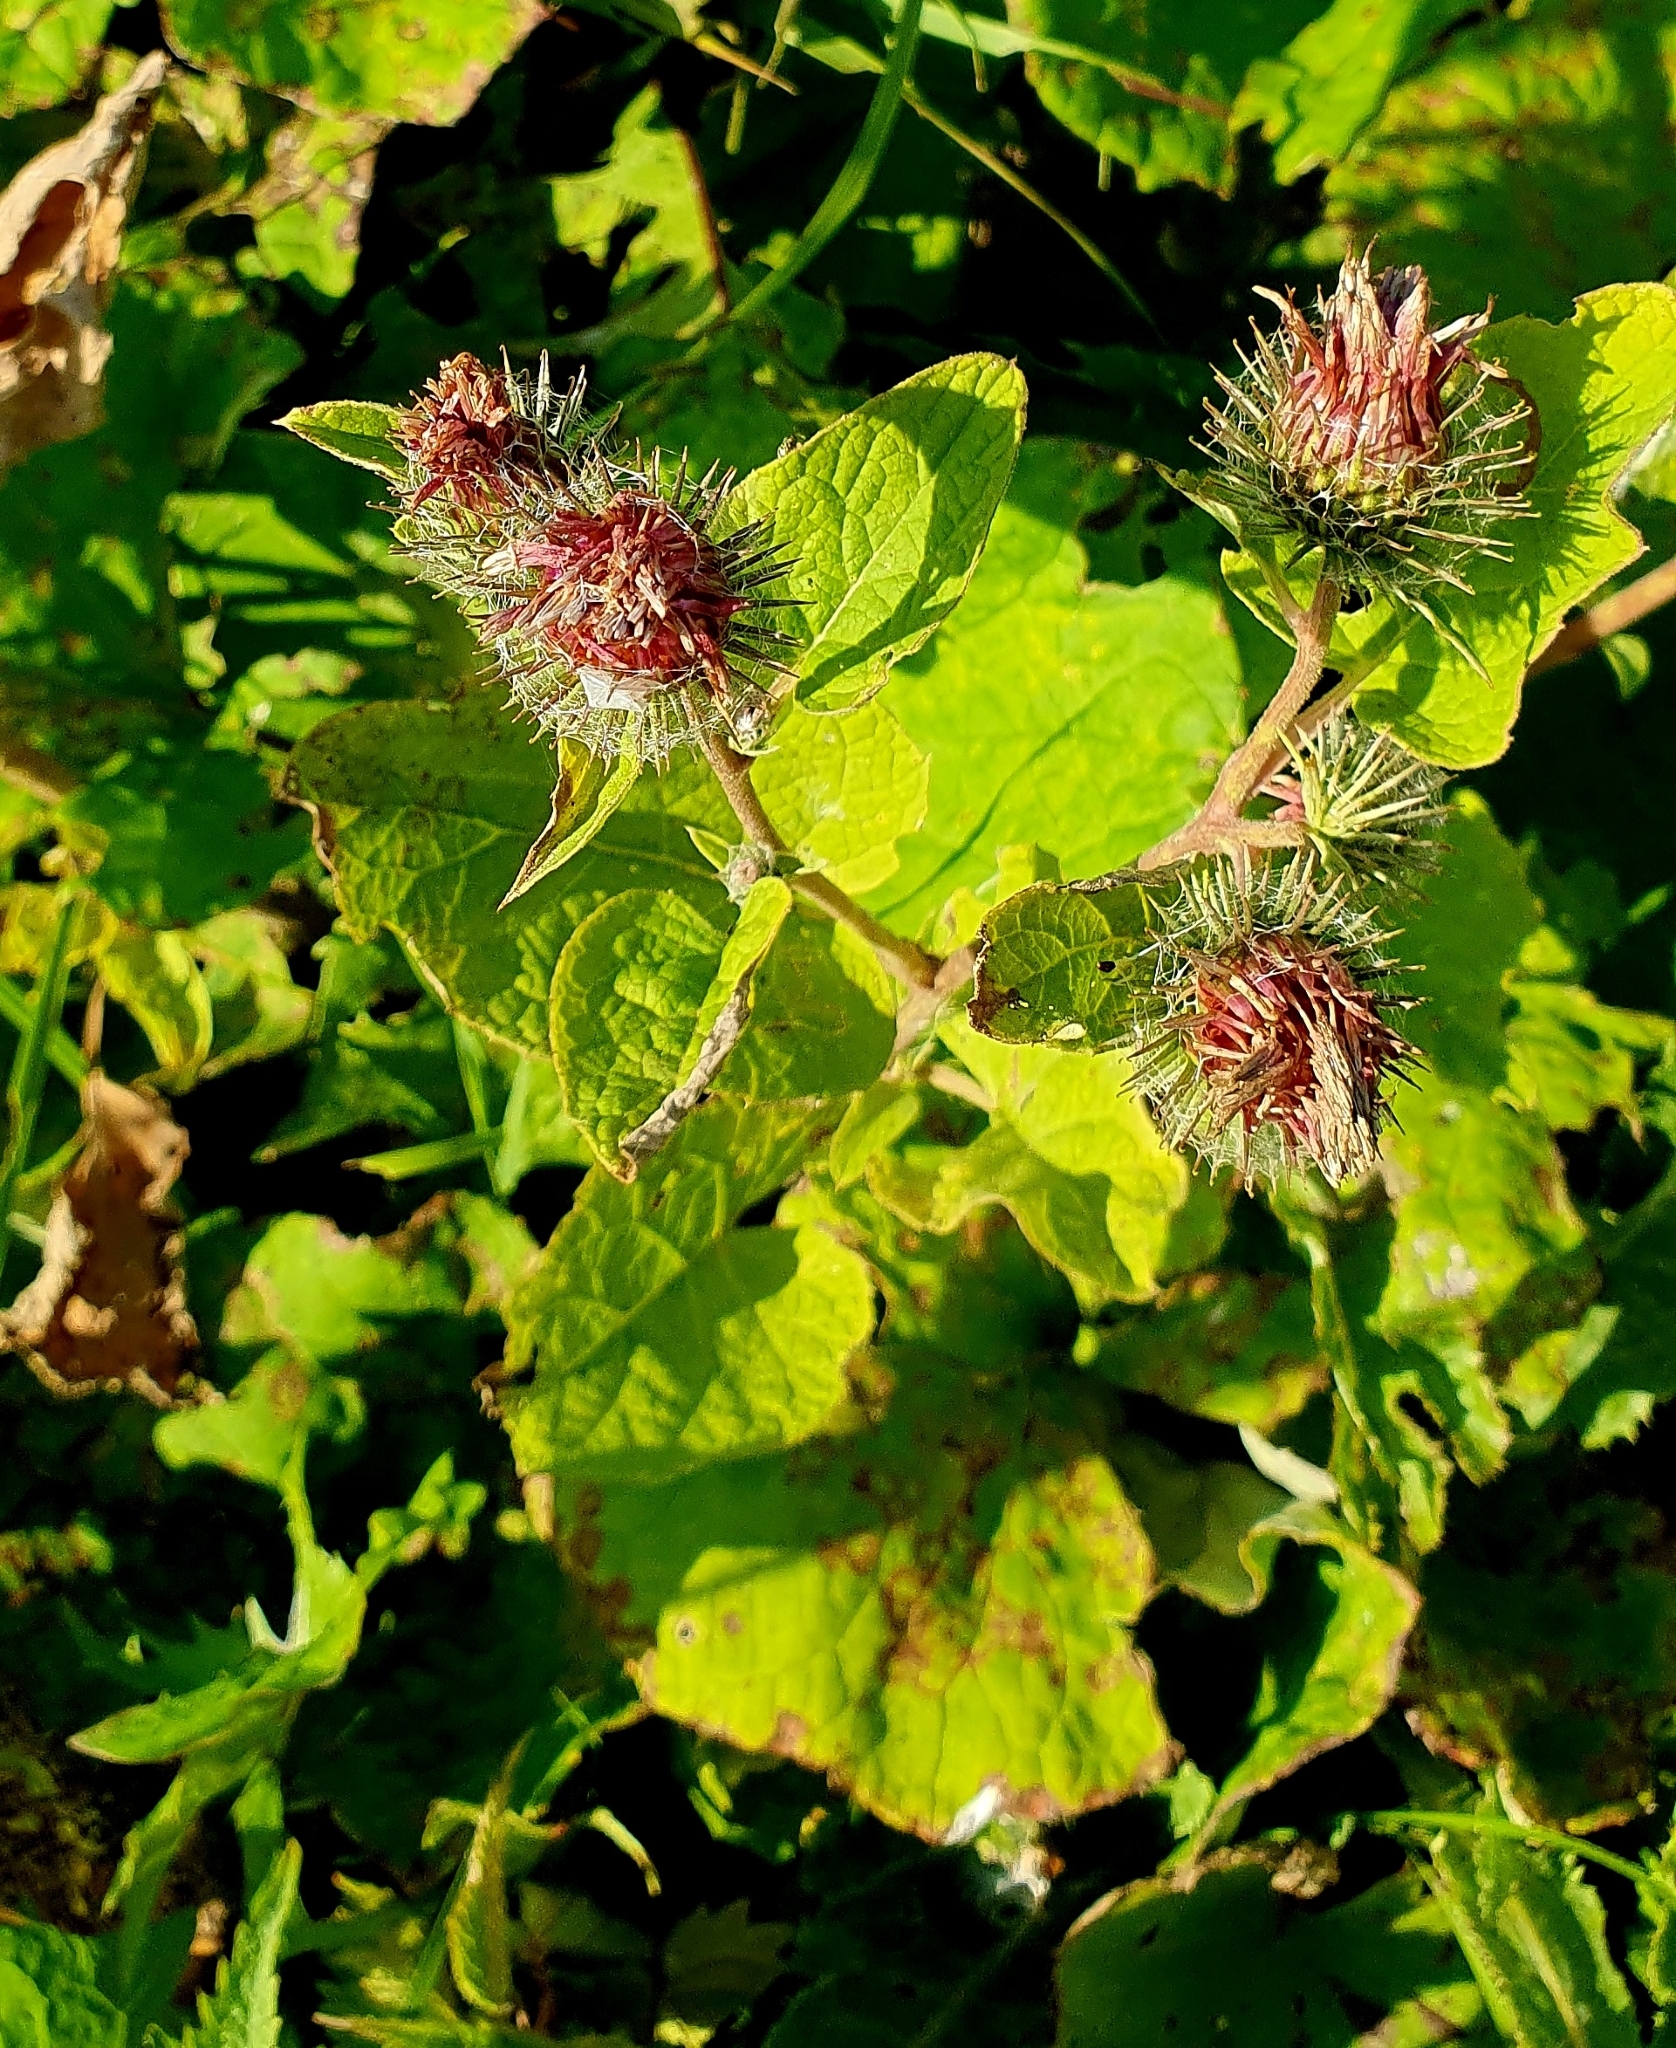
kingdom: Plantae
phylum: Tracheophyta
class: Magnoliopsida
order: Asterales
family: Asteraceae
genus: Arctium
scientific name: Arctium tomentosum
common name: Woolly burdock
